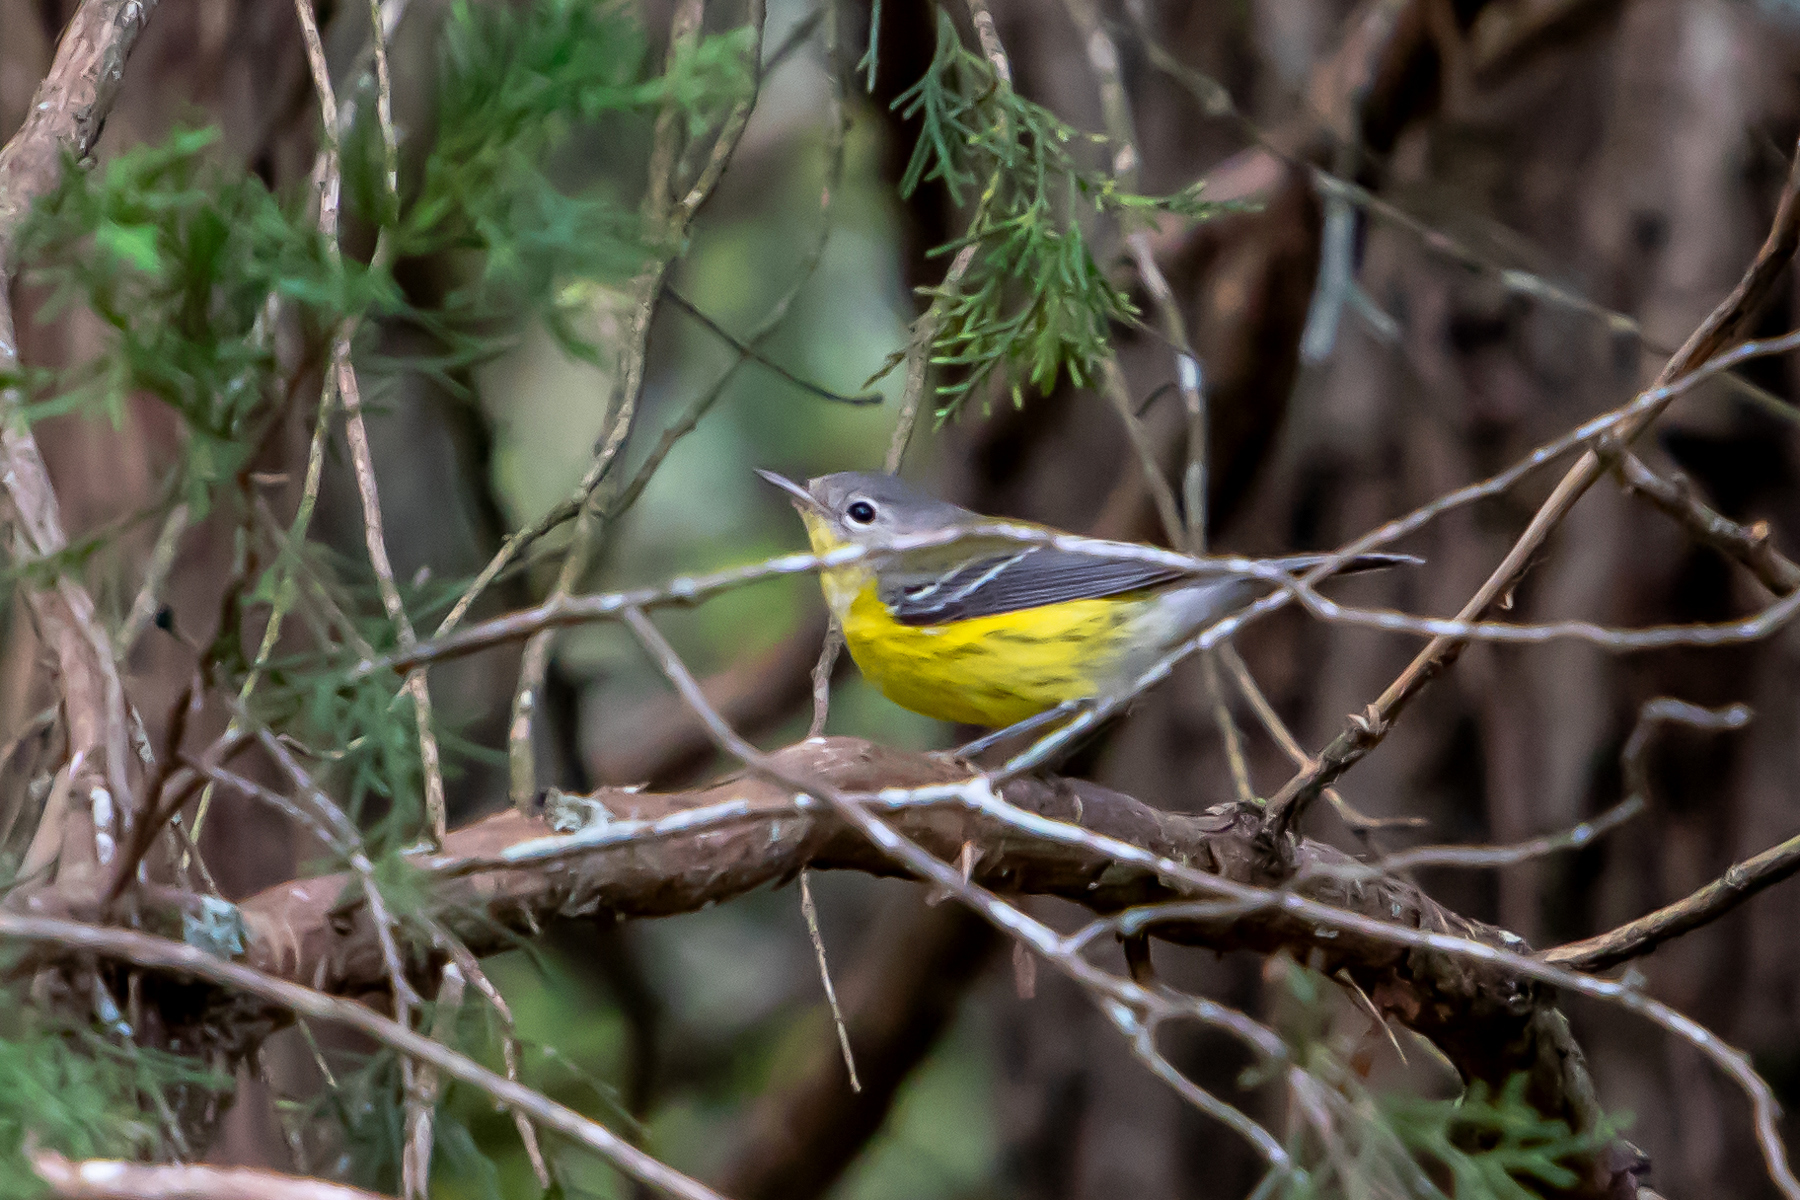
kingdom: Animalia
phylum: Chordata
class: Aves
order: Passeriformes
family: Parulidae
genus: Setophaga
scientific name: Setophaga magnolia
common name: Magnolia warbler
